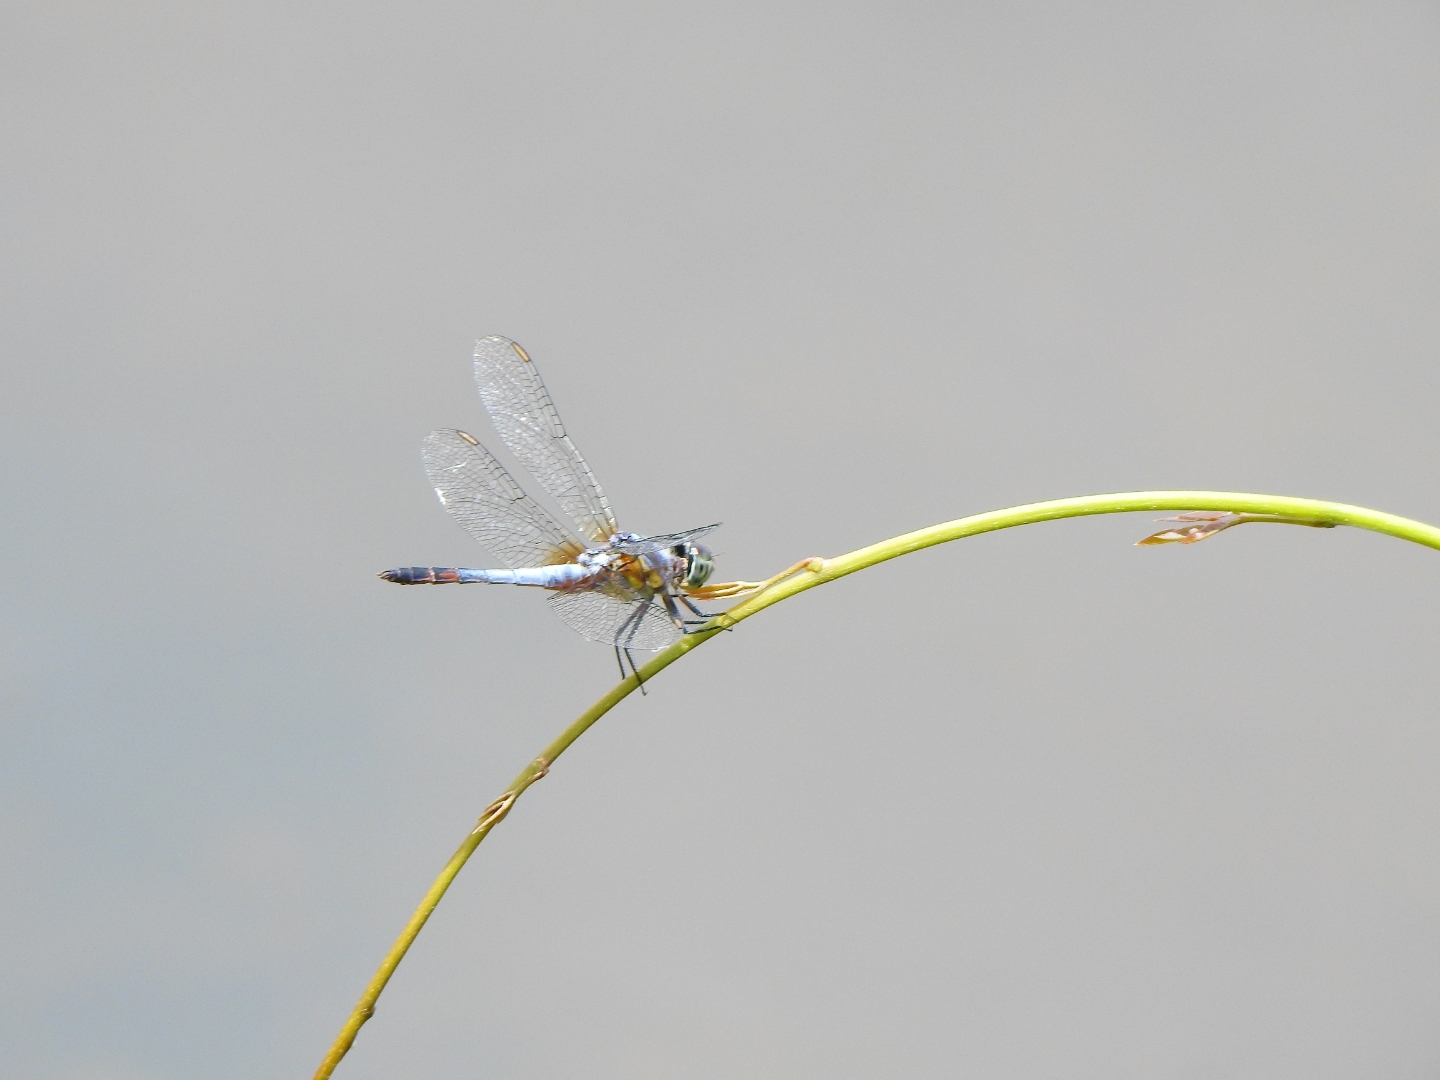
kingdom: Animalia
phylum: Arthropoda
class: Insecta
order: Odonata
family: Libellulidae
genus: Brachydiplax
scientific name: Brachydiplax chalybea
